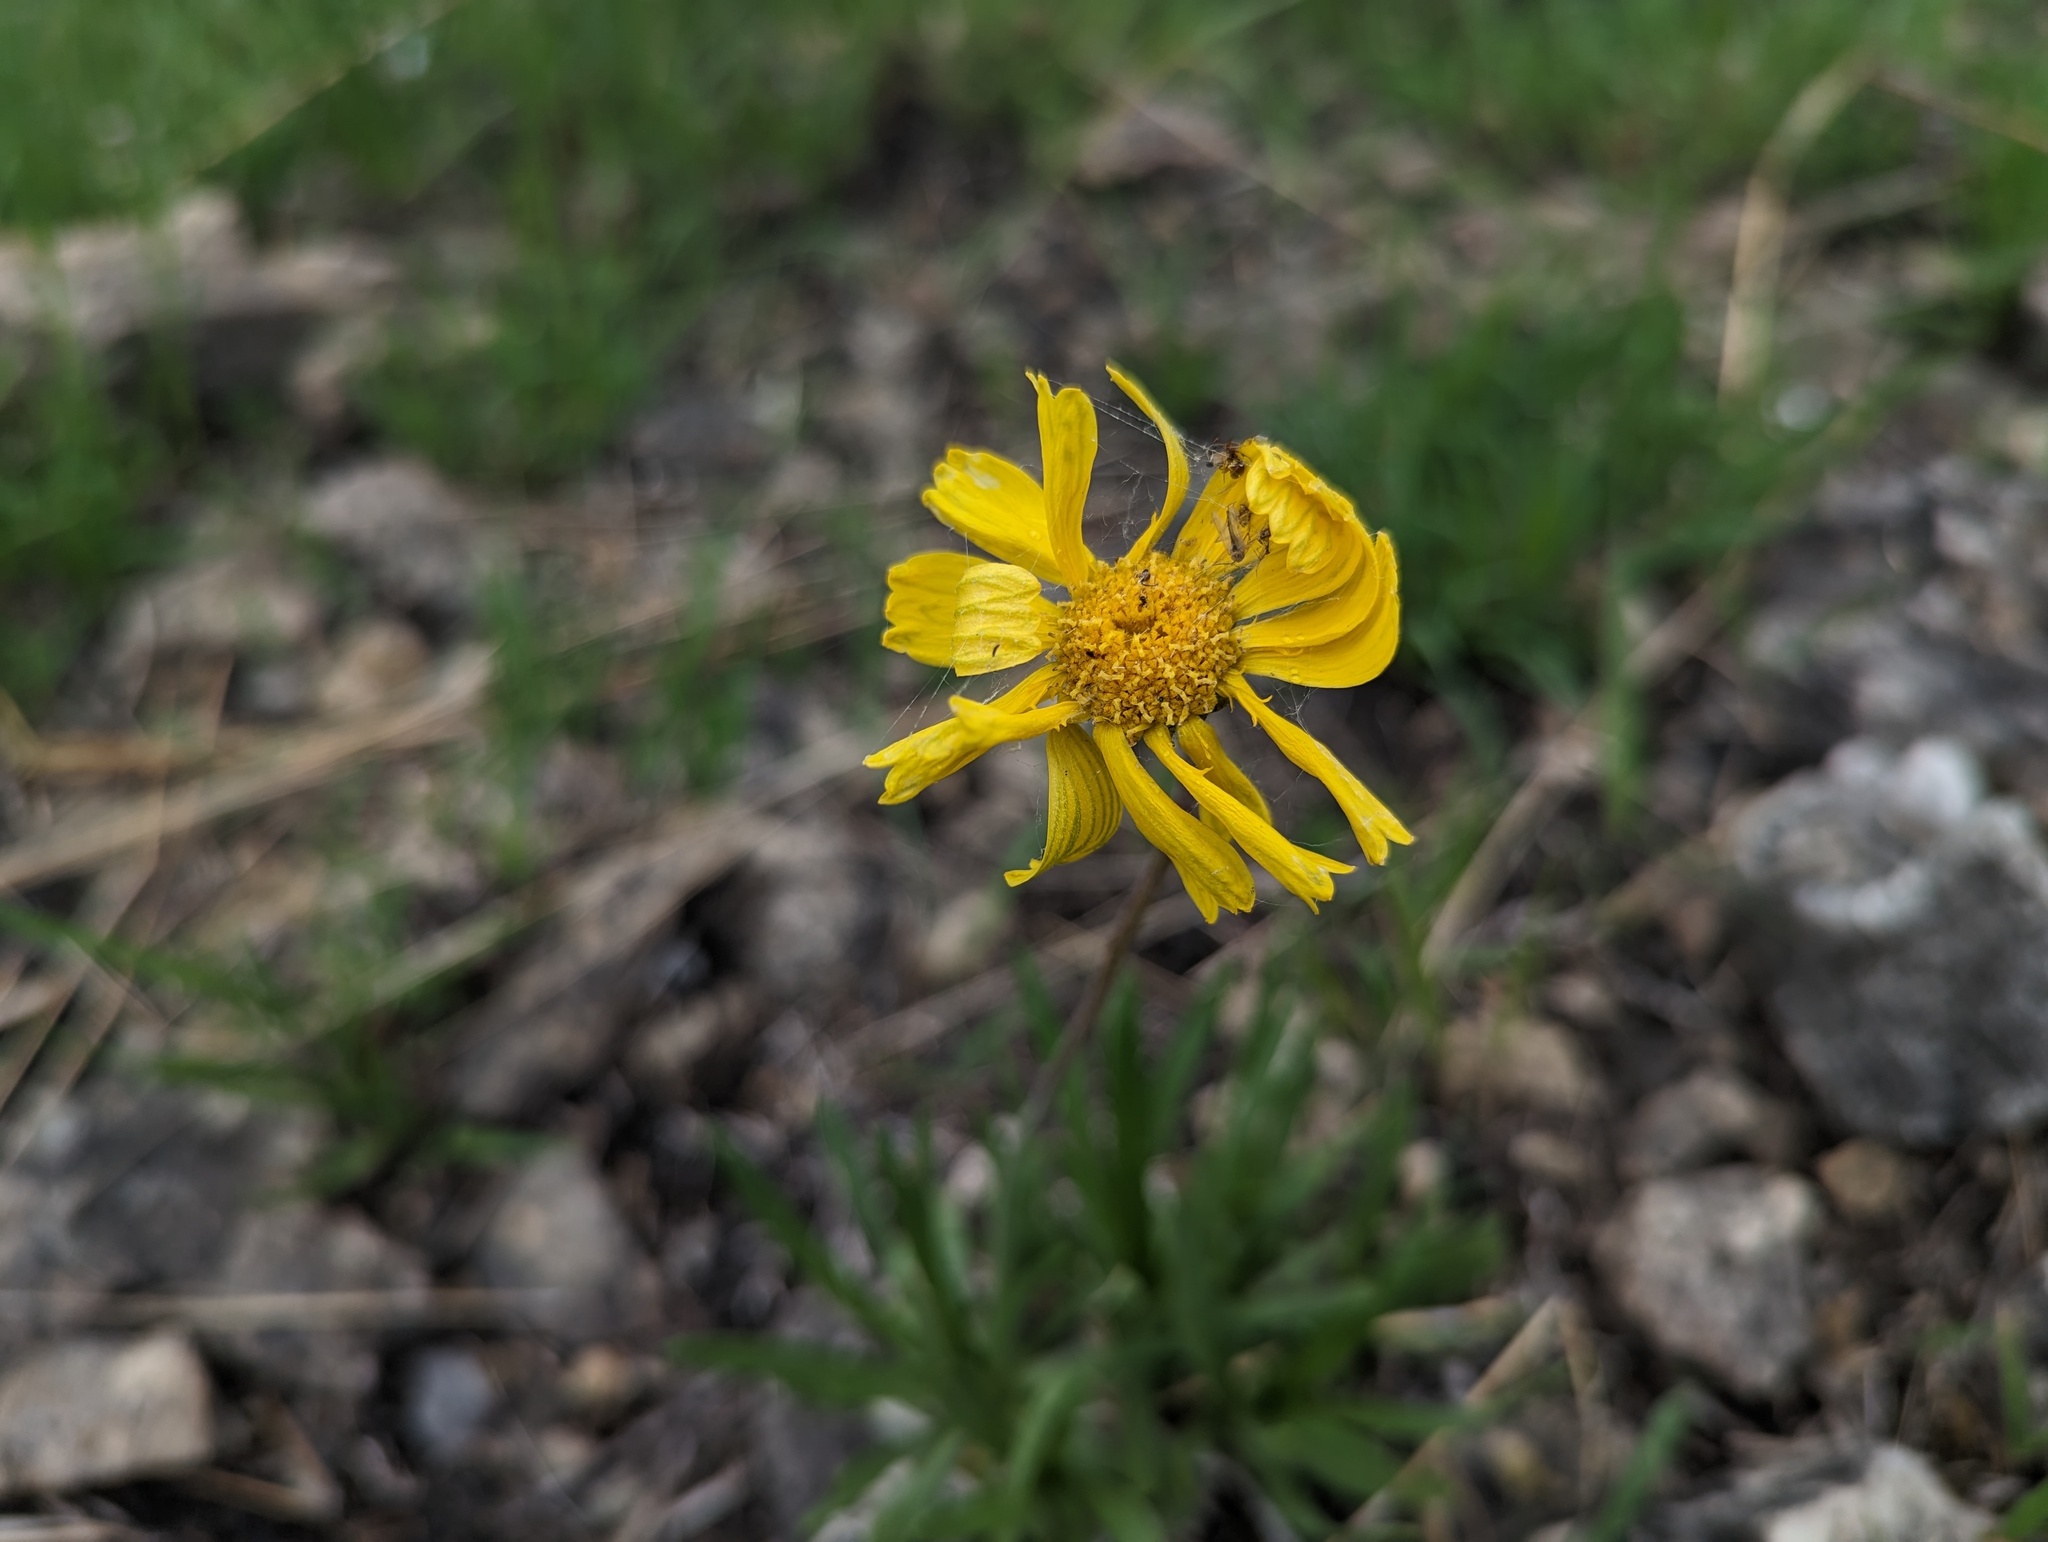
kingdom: Plantae
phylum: Tracheophyta
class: Magnoliopsida
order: Asterales
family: Asteraceae
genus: Tetraneuris
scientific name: Tetraneuris herbacea
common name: Lakeside daisy
